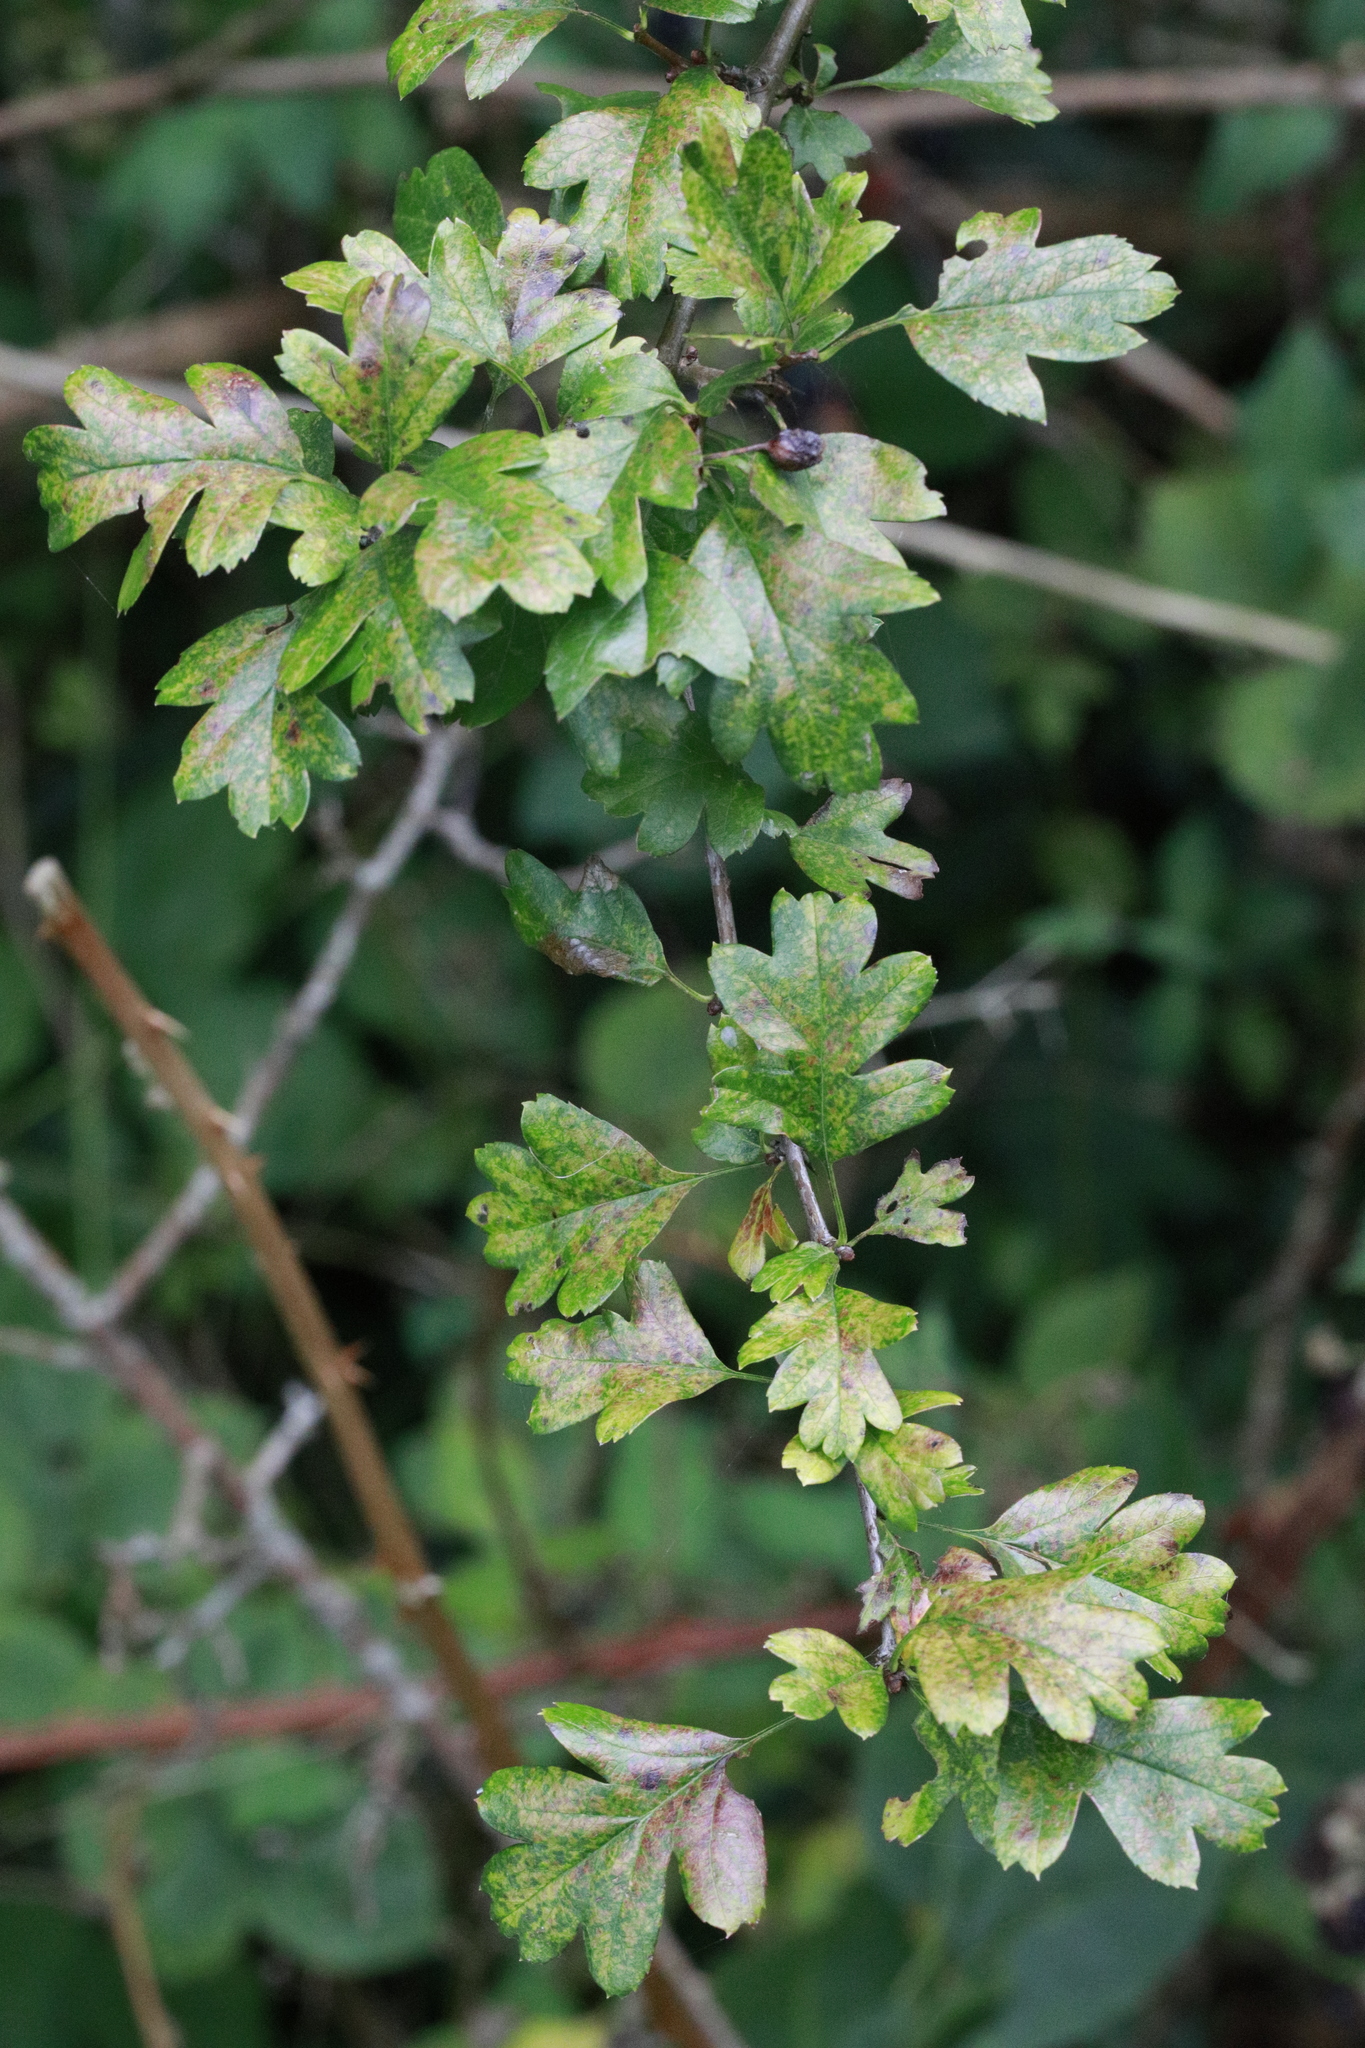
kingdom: Plantae
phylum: Tracheophyta
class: Magnoliopsida
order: Rosales
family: Rosaceae
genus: Crataegus
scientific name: Crataegus monogyna
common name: Hawthorn
